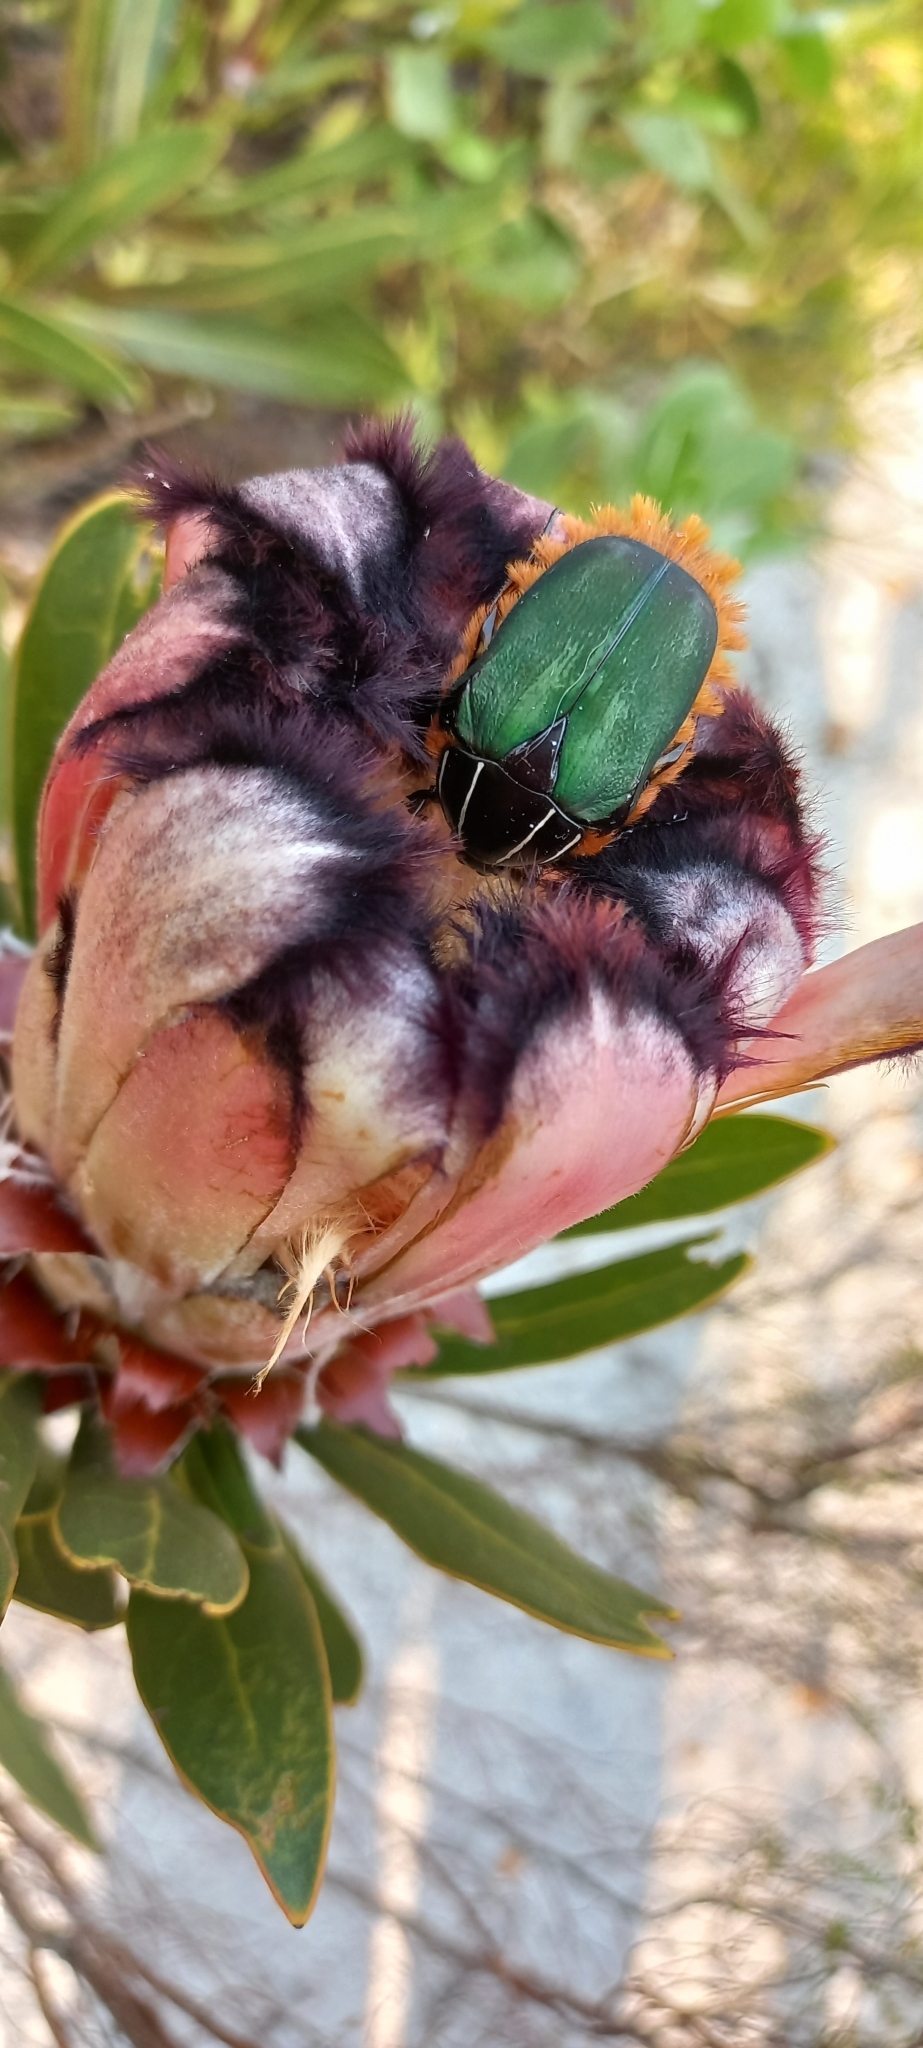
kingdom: Animalia
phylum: Arthropoda
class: Insecta
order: Coleoptera
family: Scarabaeidae
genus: Trichostetha
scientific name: Trichostetha fascicularis
